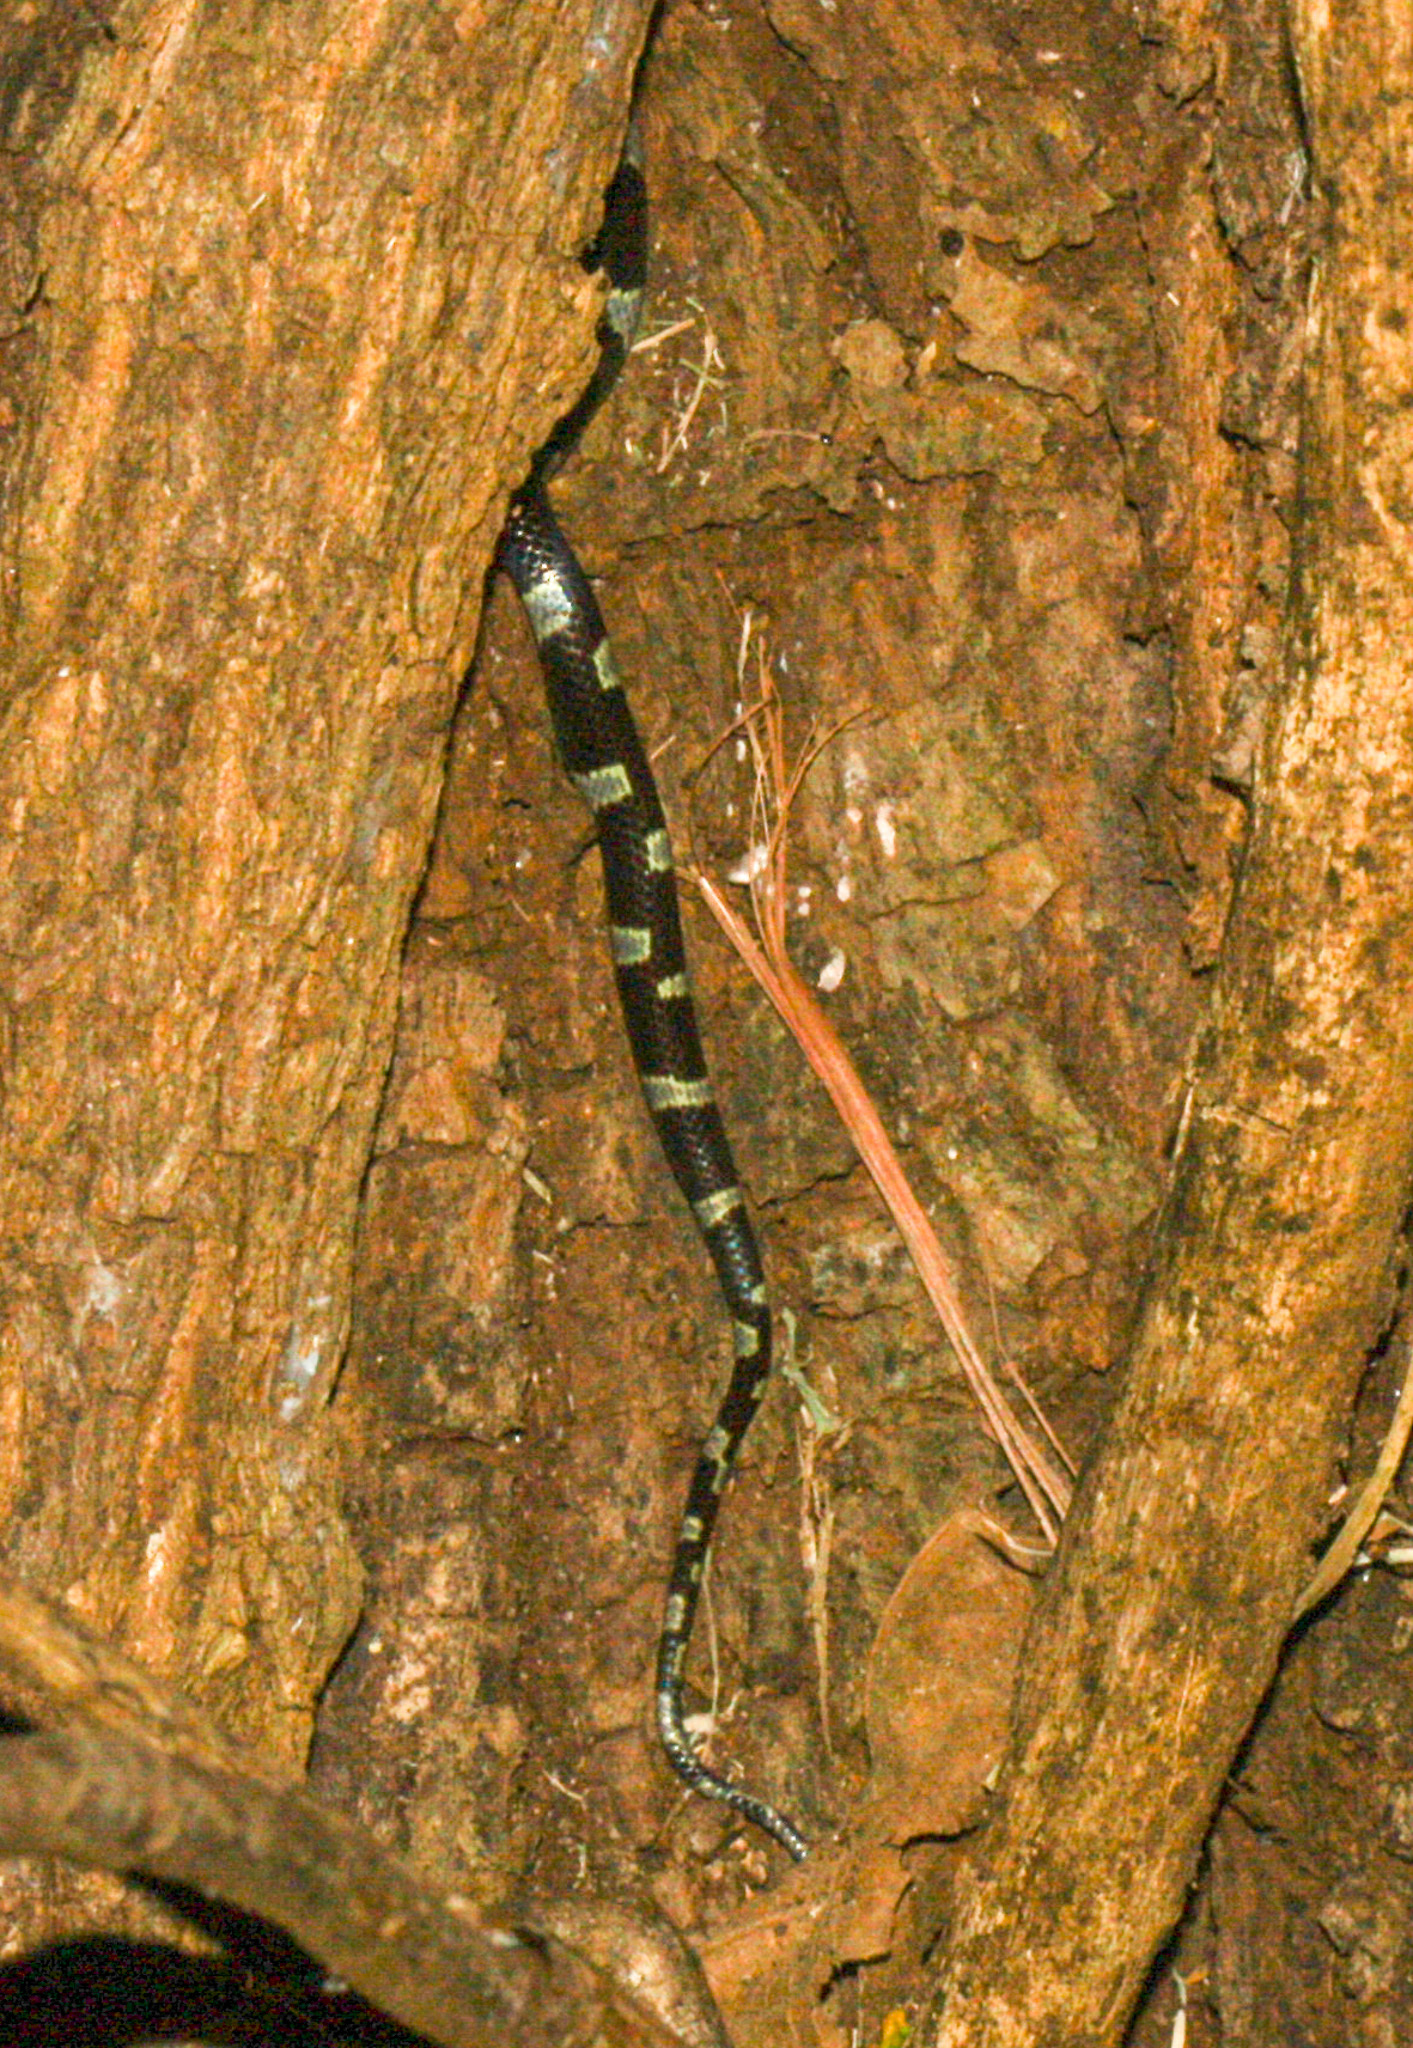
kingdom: Animalia
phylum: Chordata
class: Squamata
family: Colubridae
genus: Leptodeira
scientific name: Leptodeira nigrofasciata
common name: Black-banded cat-eyed snake
